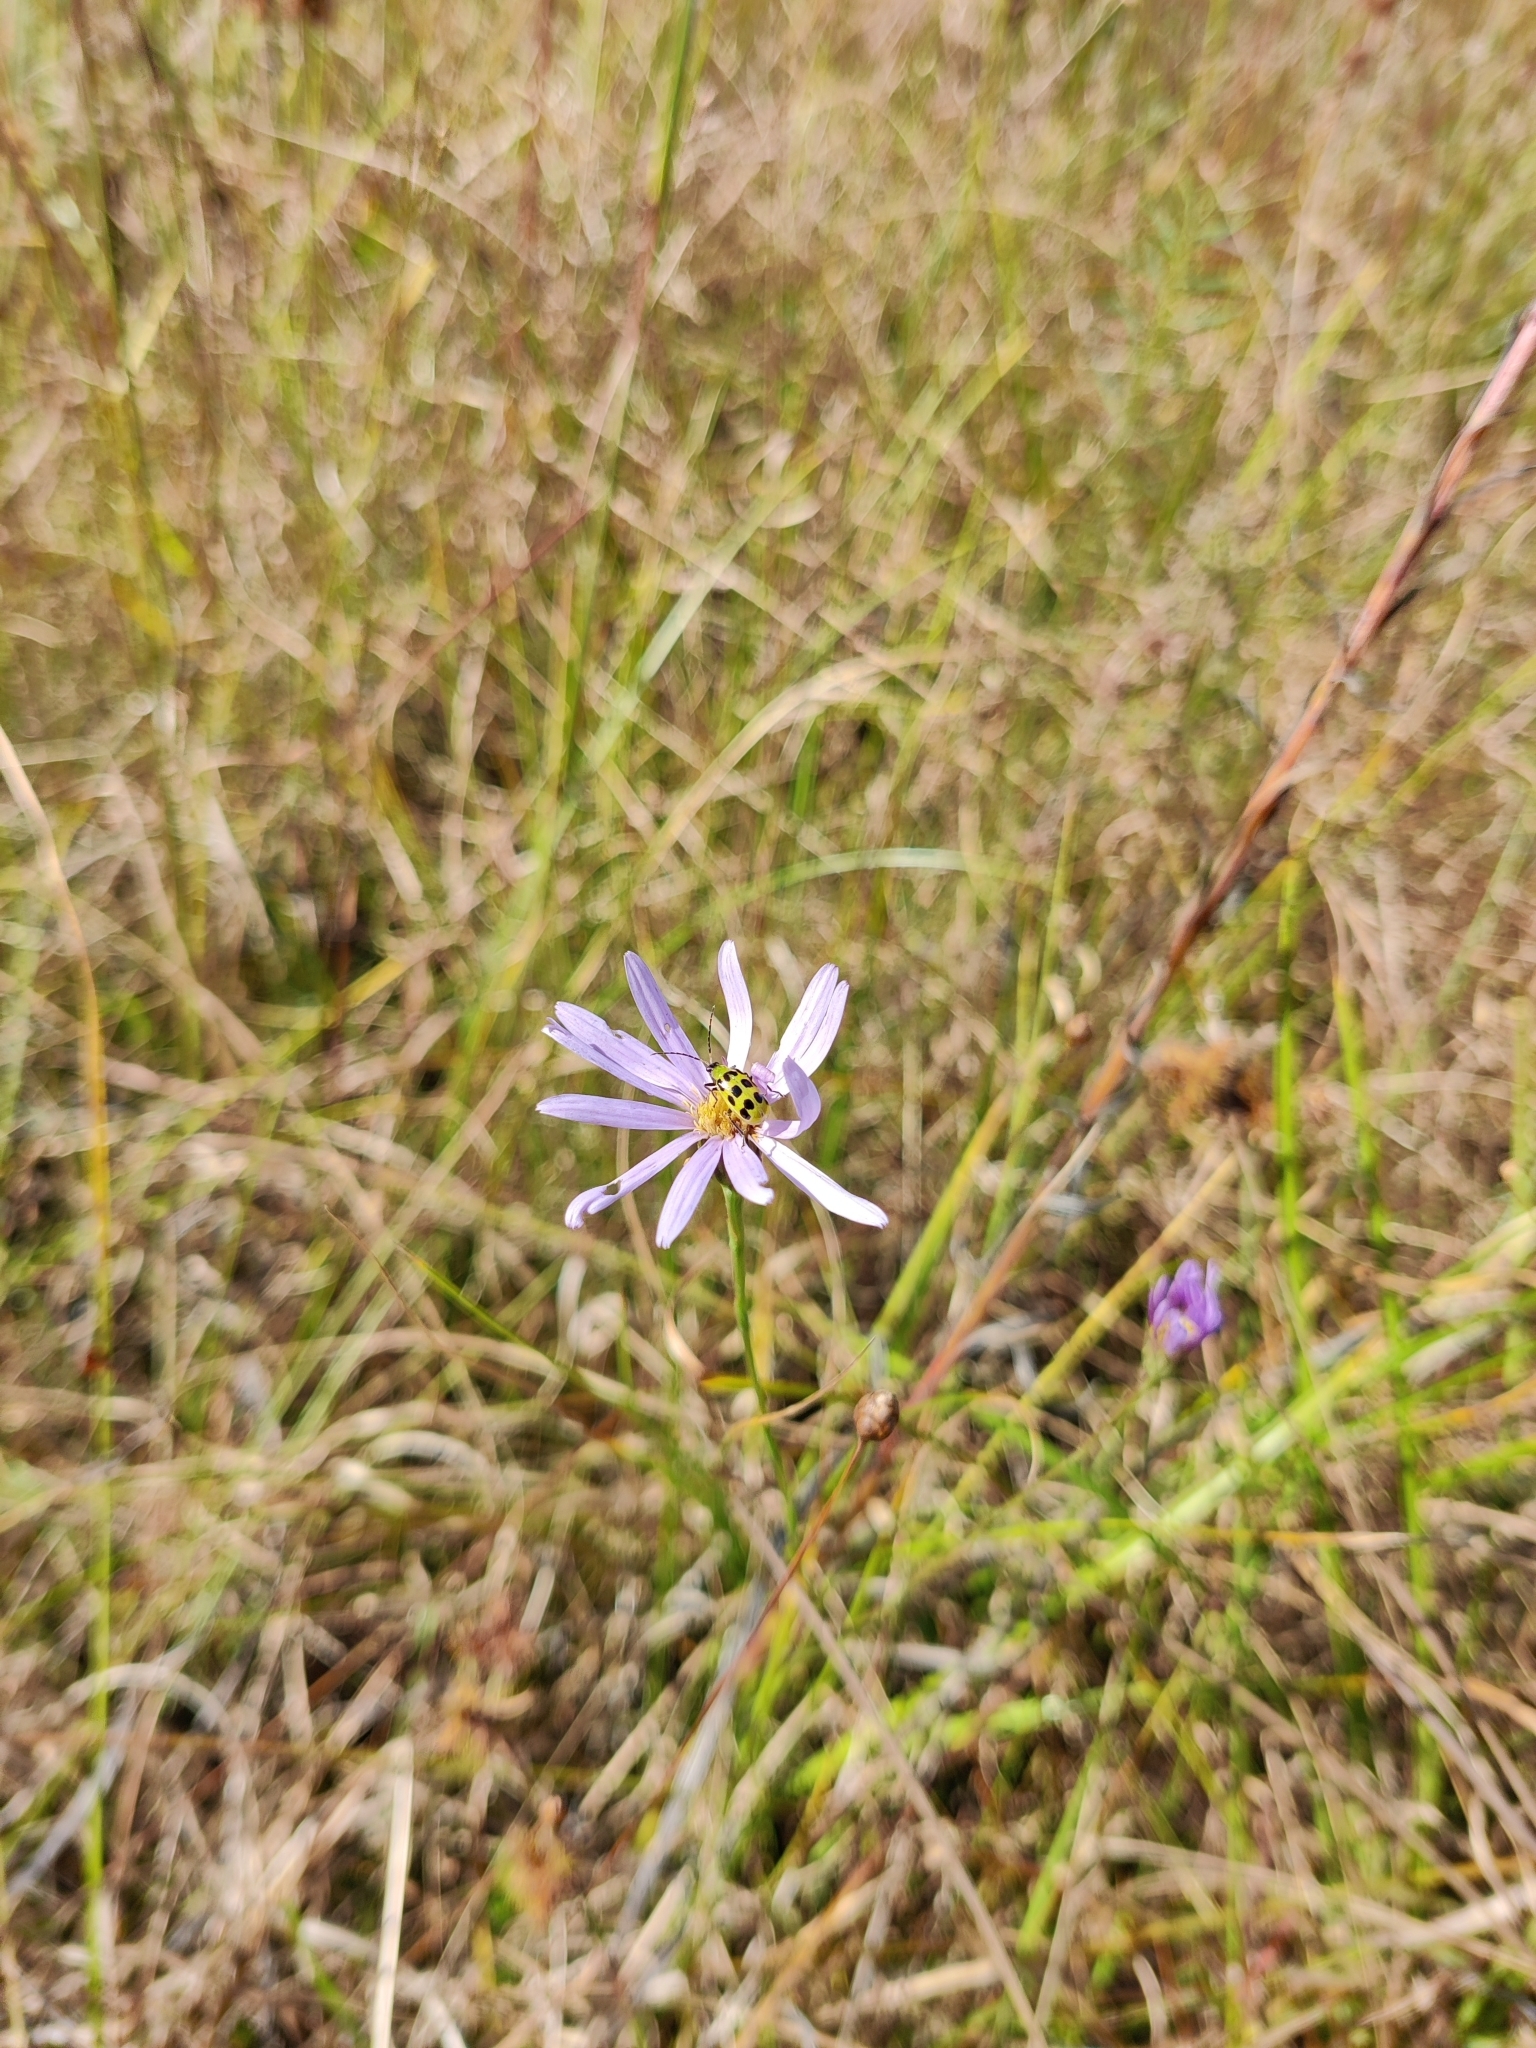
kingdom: Plantae
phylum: Tracheophyta
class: Magnoliopsida
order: Asterales
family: Asteraceae
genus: Symphyotrichum
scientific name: Symphyotrichum chapmanii
